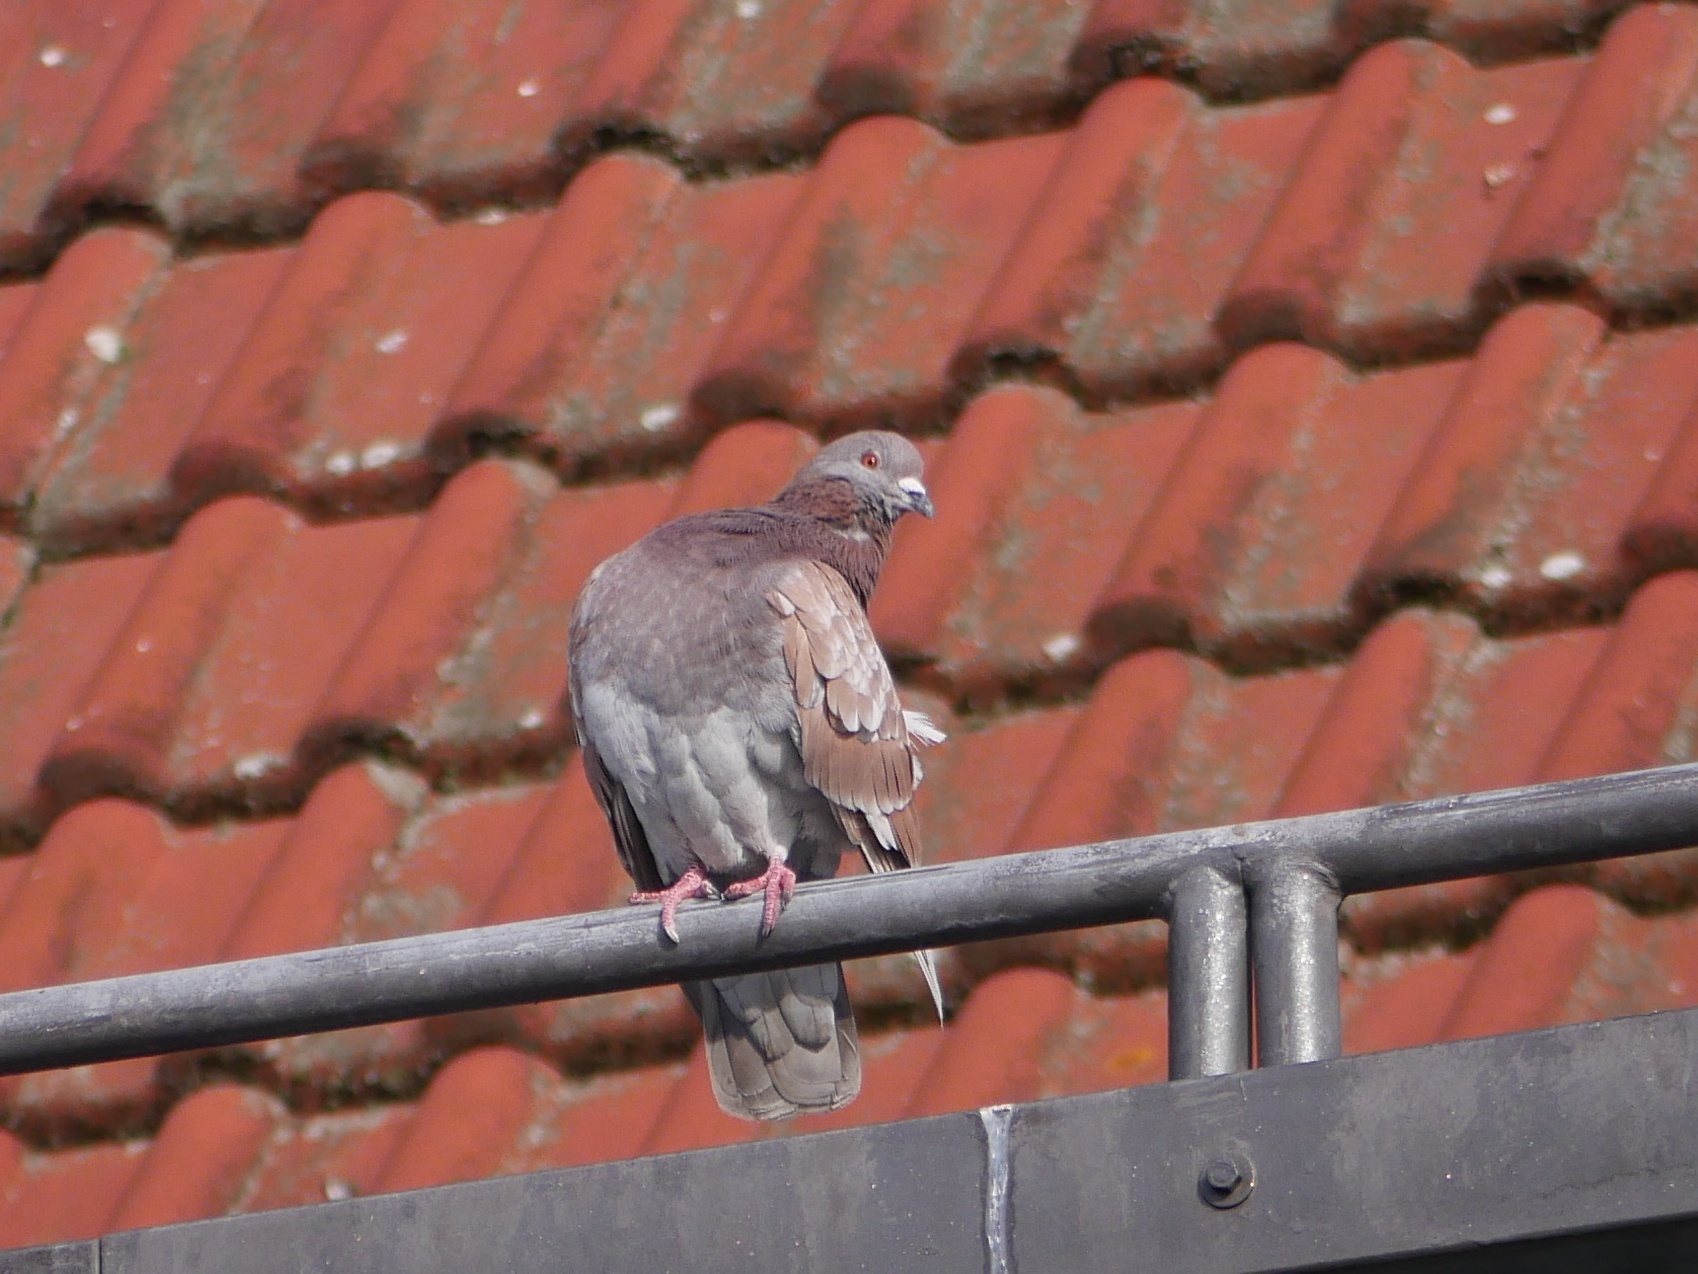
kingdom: Animalia
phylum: Chordata
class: Aves
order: Columbiformes
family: Columbidae
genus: Columba
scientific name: Columba livia
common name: Rock pigeon
